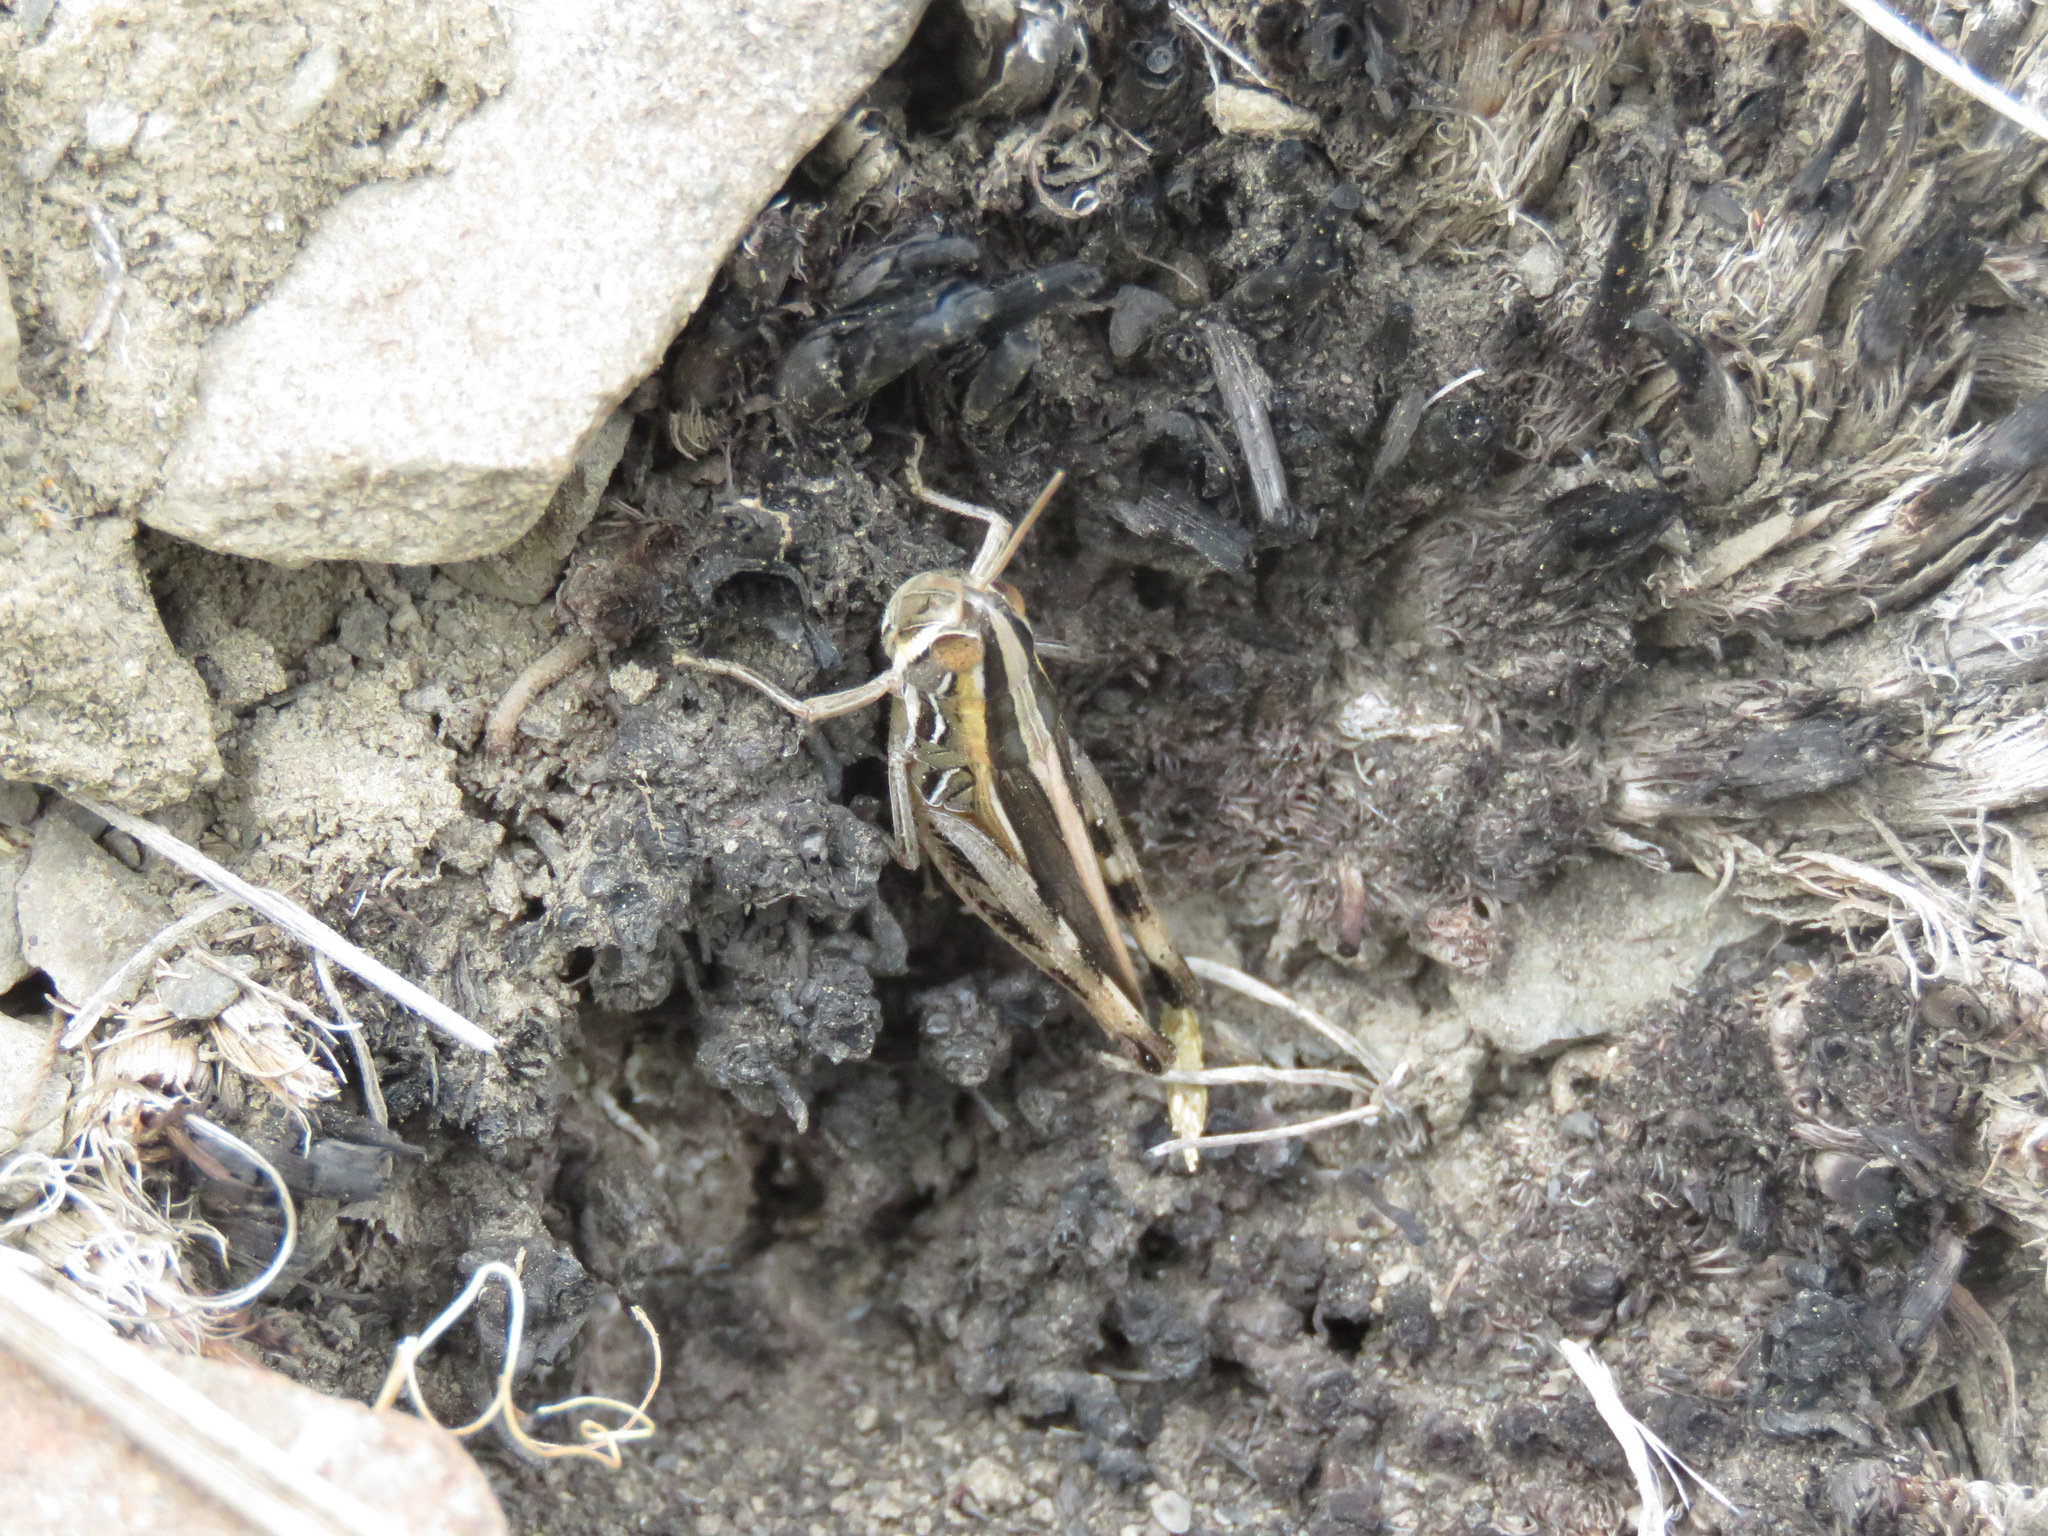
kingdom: Animalia
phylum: Arthropoda
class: Insecta
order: Orthoptera
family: Acrididae
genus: Amphitornus
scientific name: Amphitornus coloradus
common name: Striped grasshopper
